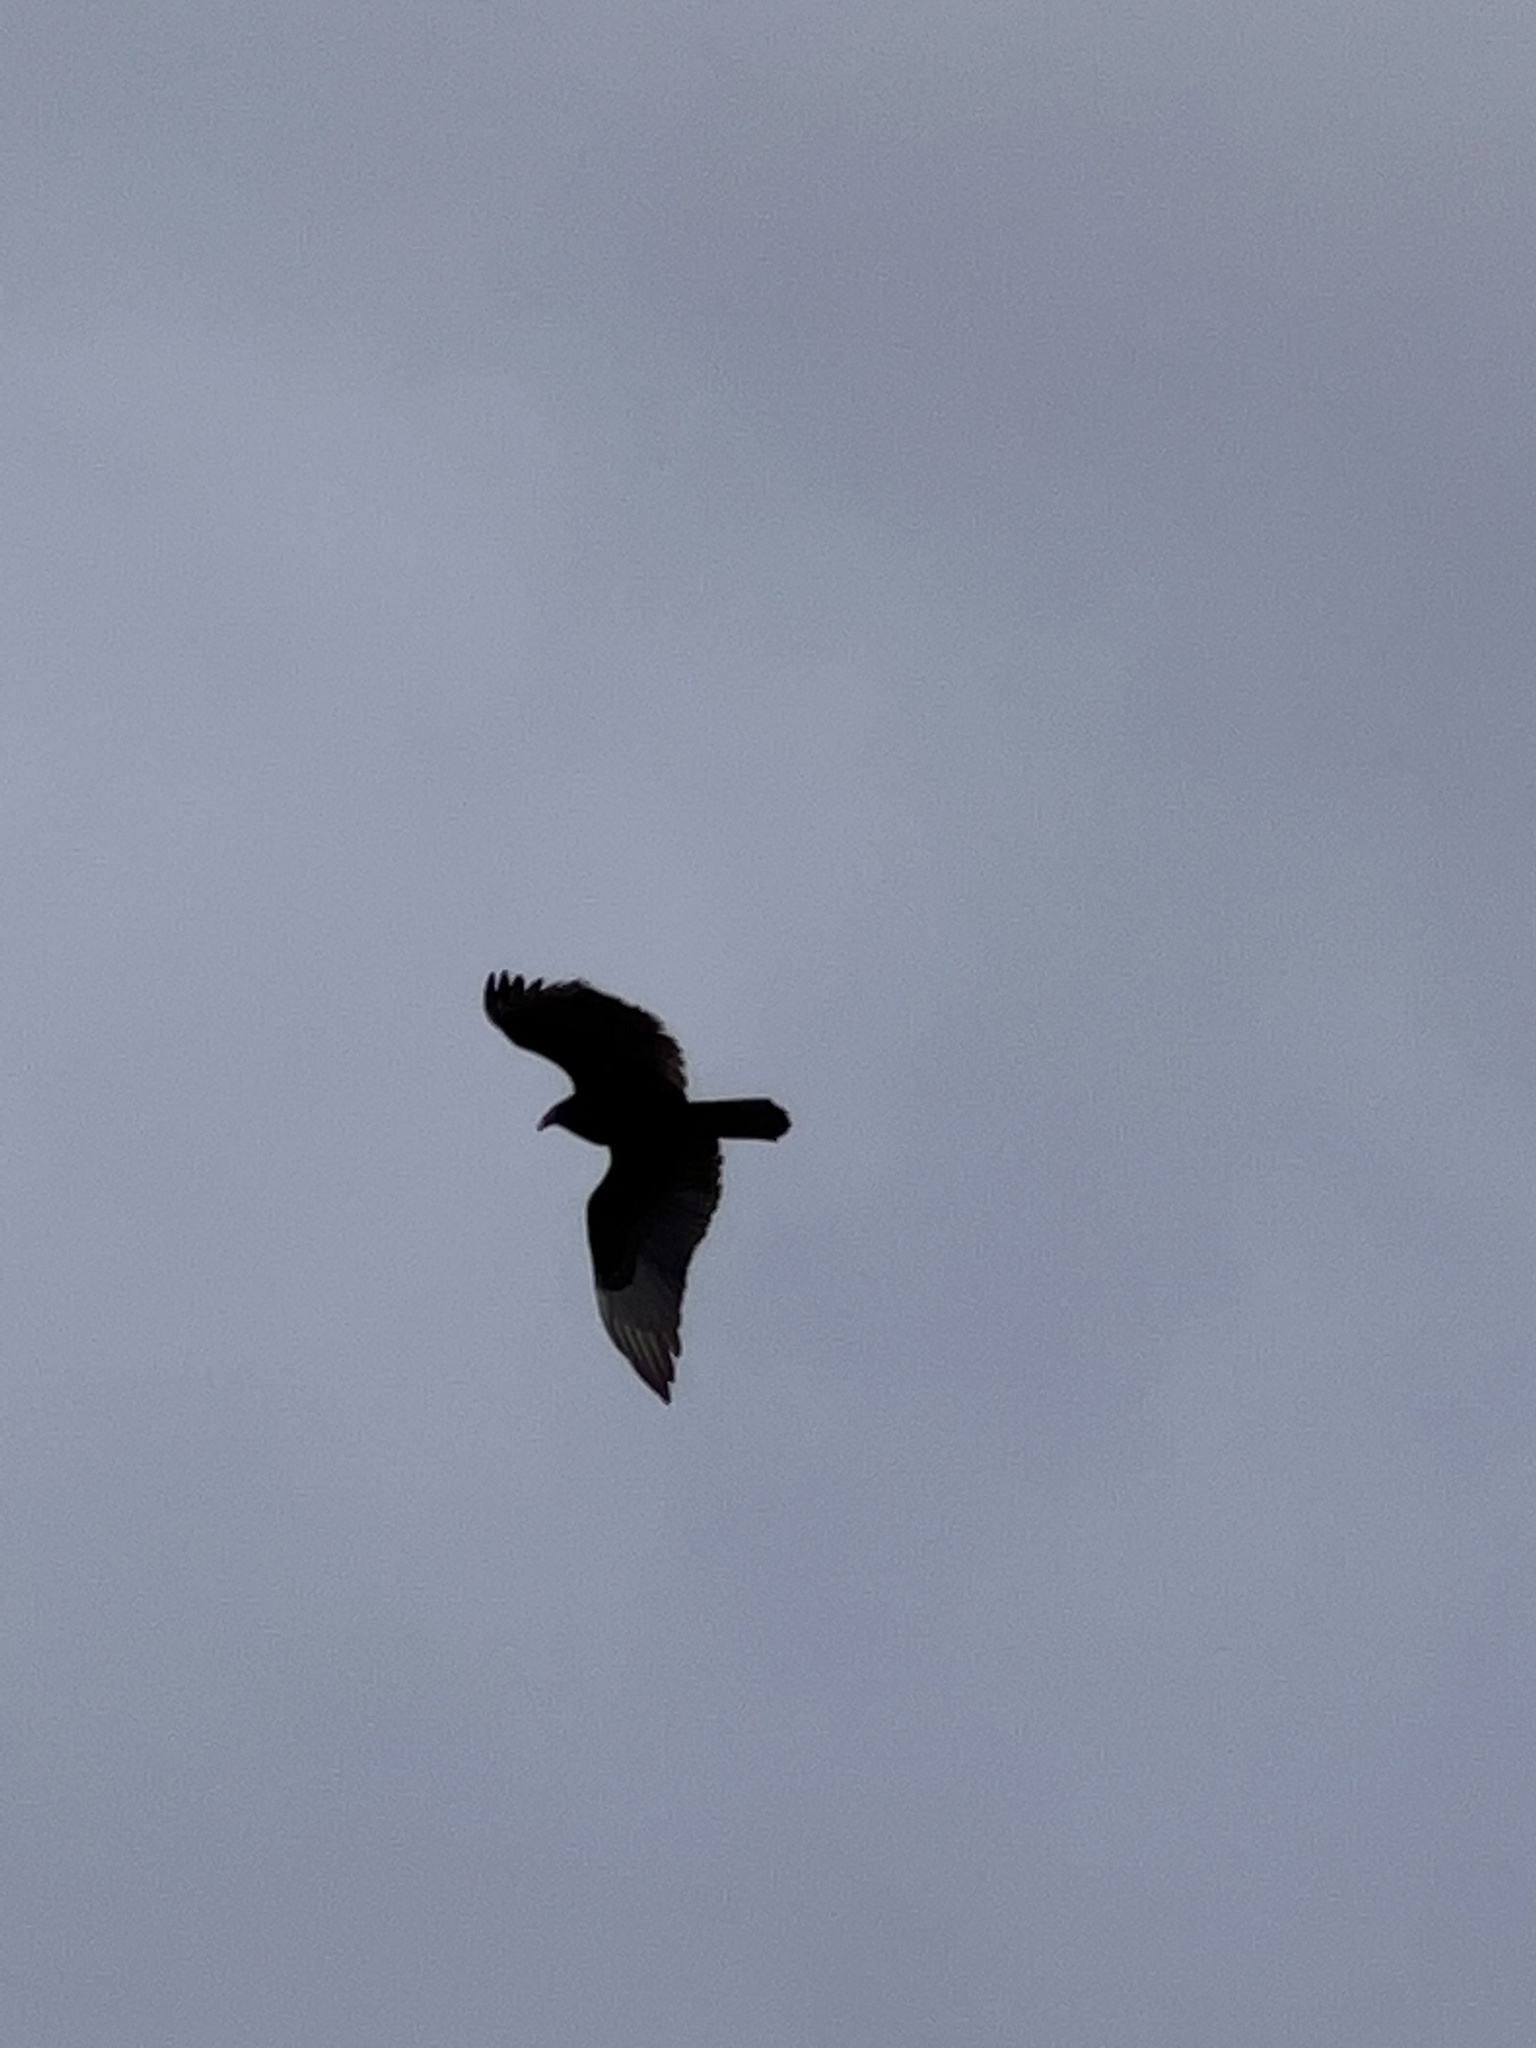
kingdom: Animalia
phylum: Chordata
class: Aves
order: Accipitriformes
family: Cathartidae
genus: Cathartes
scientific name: Cathartes aura
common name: Turkey vulture
